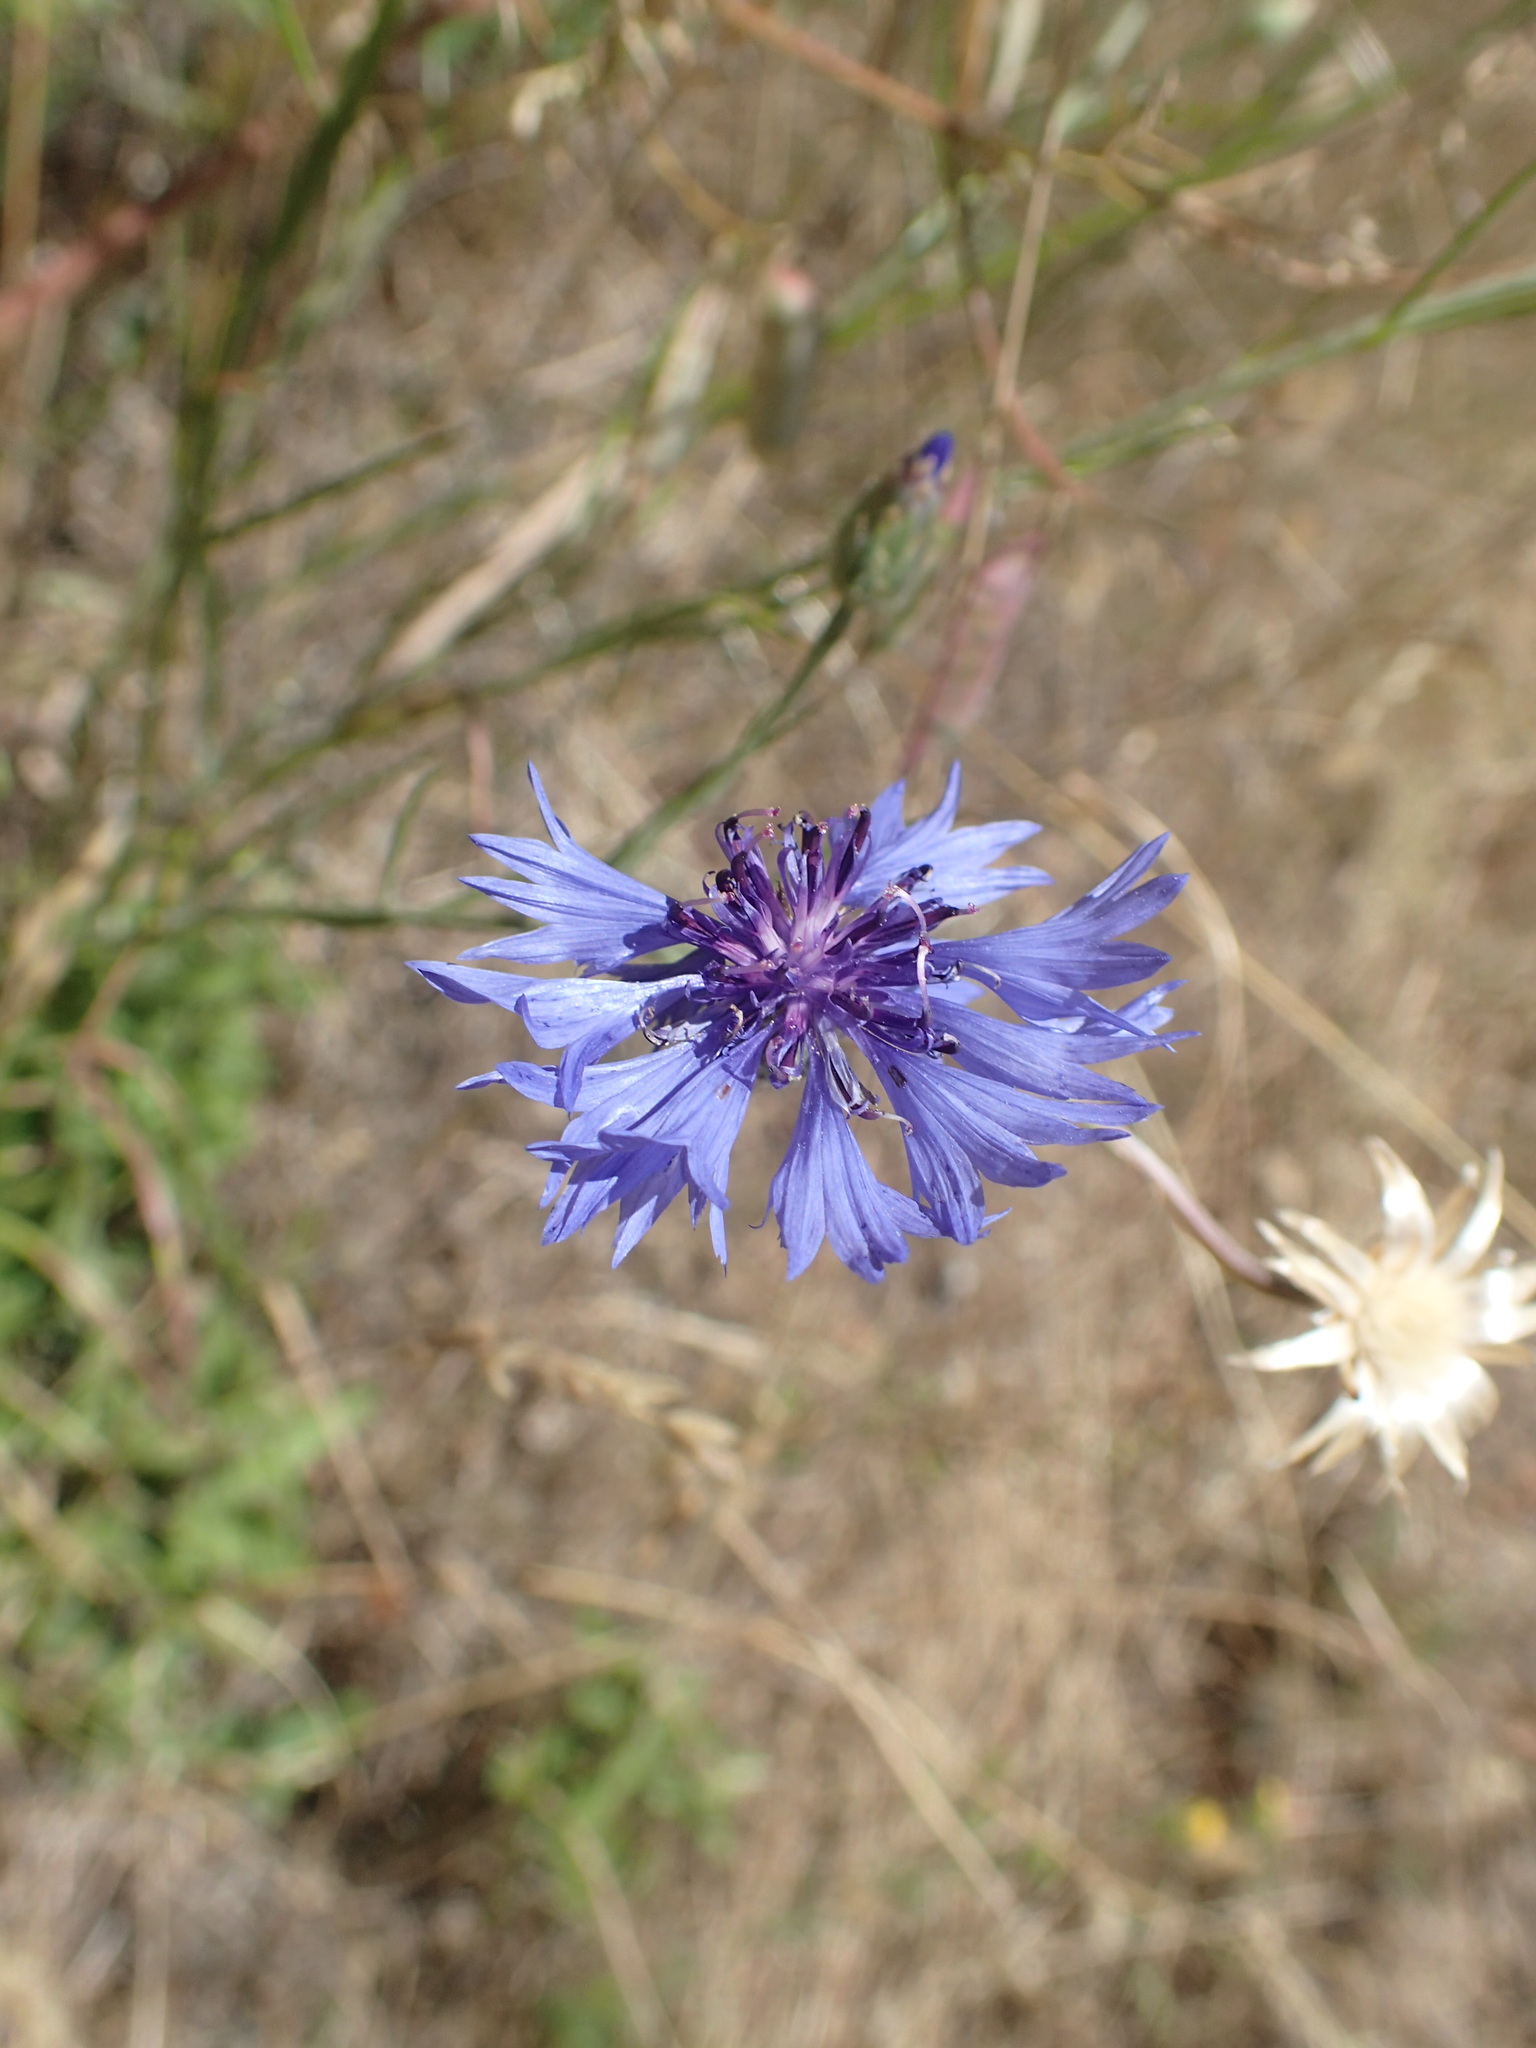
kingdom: Plantae
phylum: Tracheophyta
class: Magnoliopsida
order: Asterales
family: Asteraceae
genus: Centaurea
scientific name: Centaurea cyanus
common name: Cornflower
